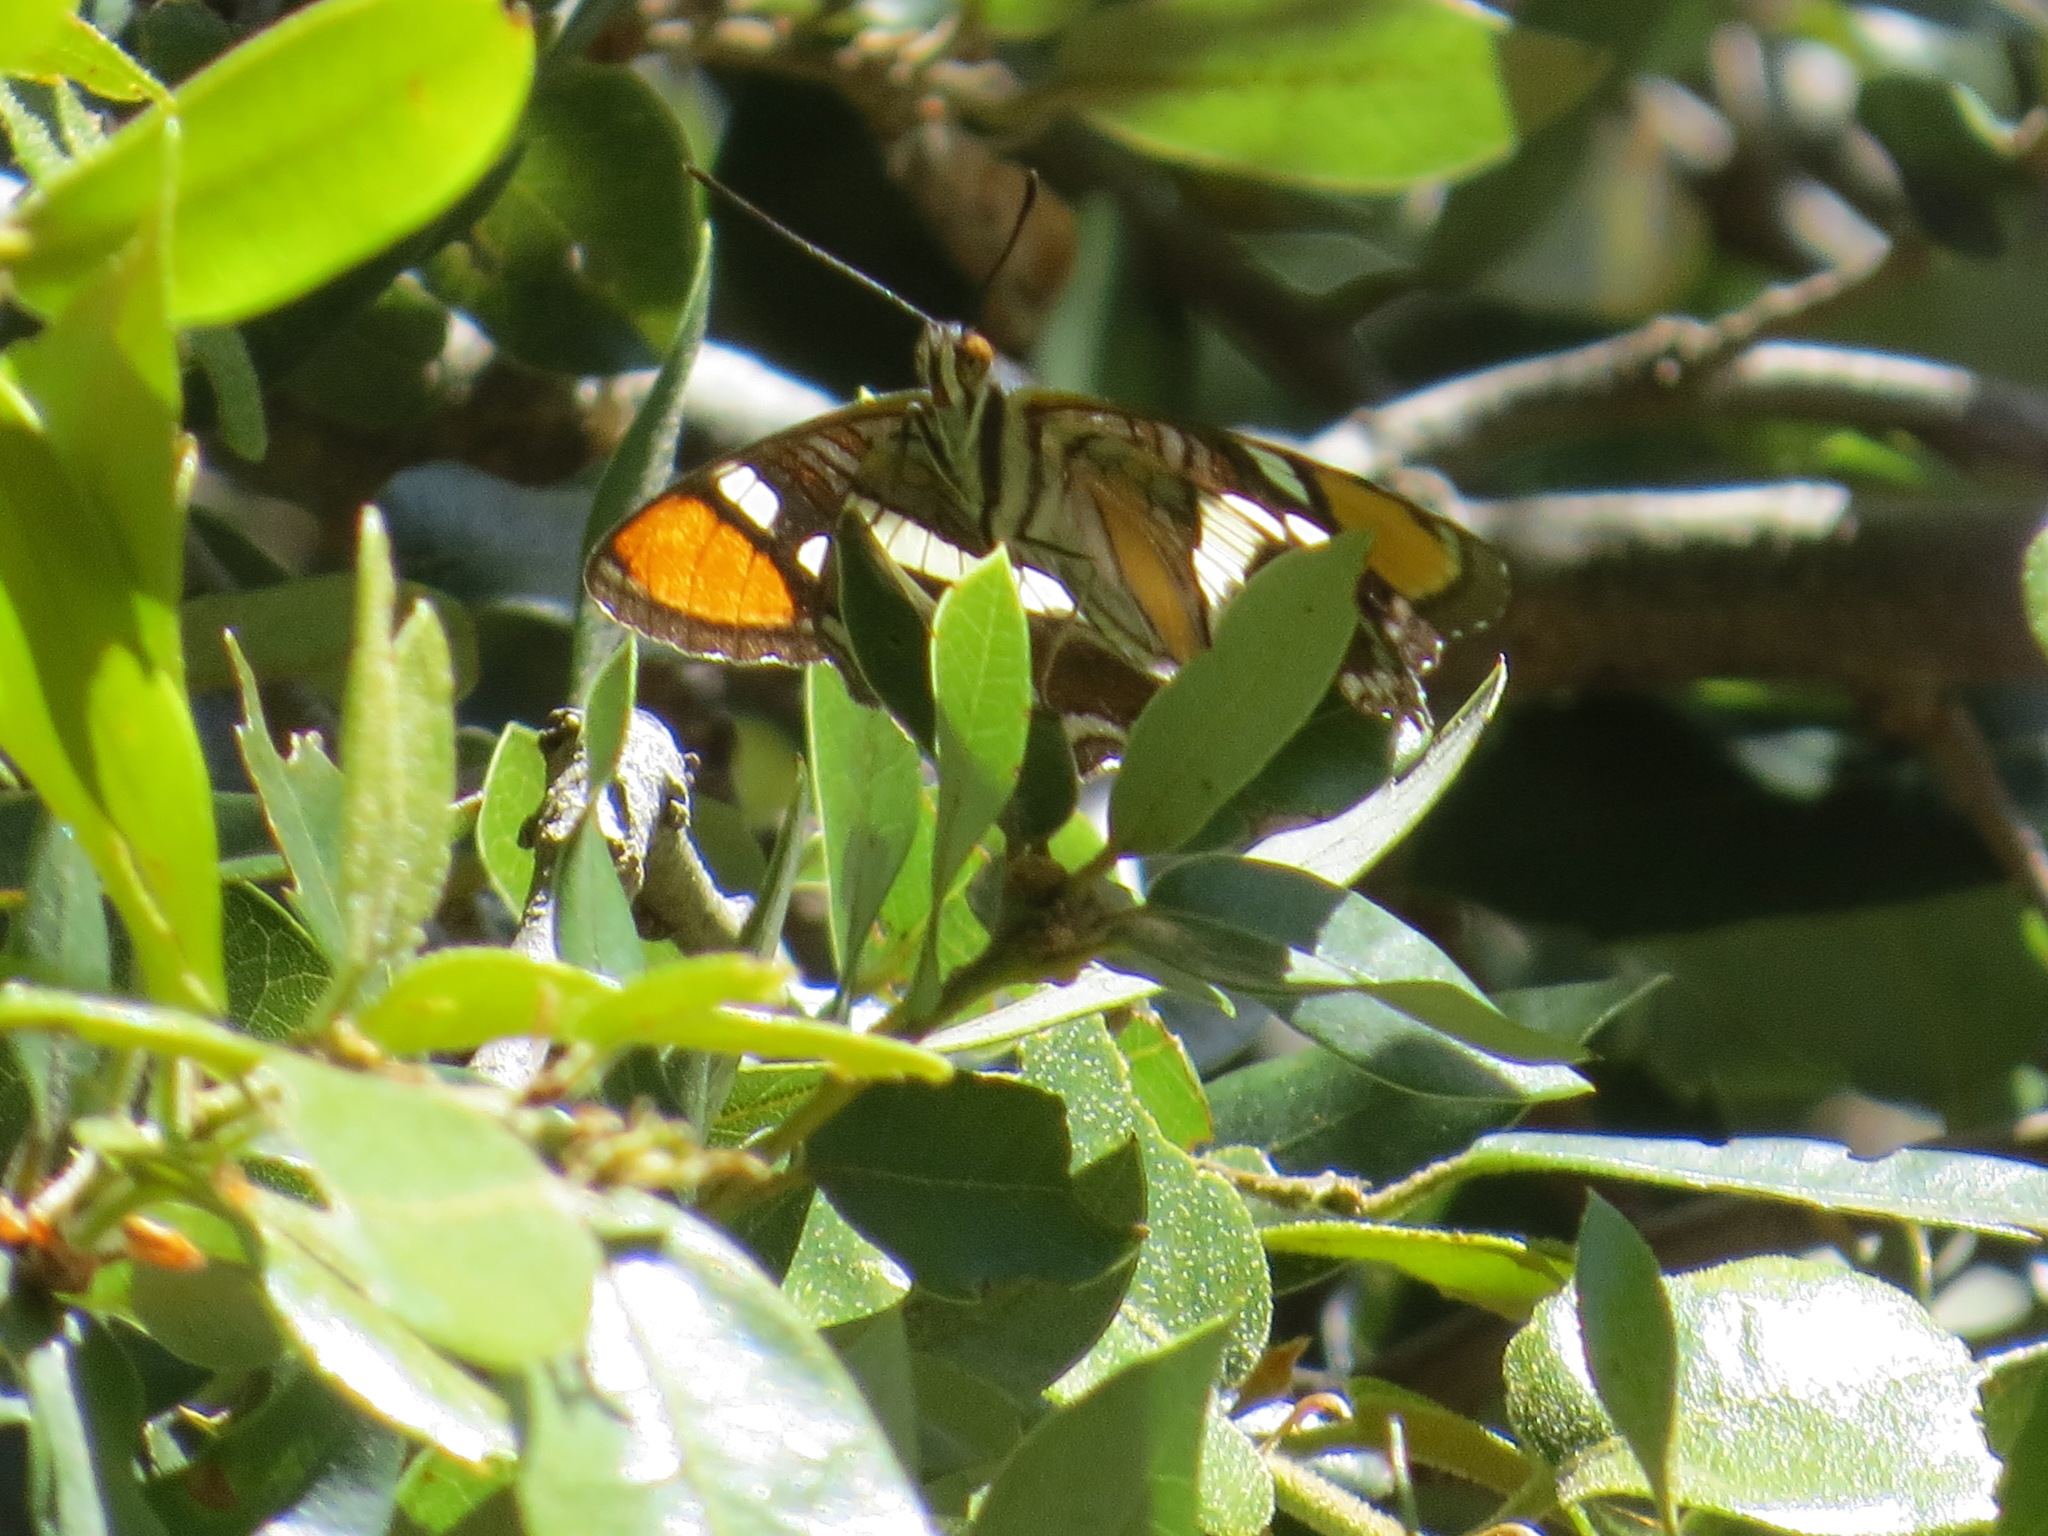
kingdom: Animalia
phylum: Arthropoda
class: Insecta
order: Lepidoptera
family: Nymphalidae
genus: Limenitis
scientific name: Limenitis bredowii
